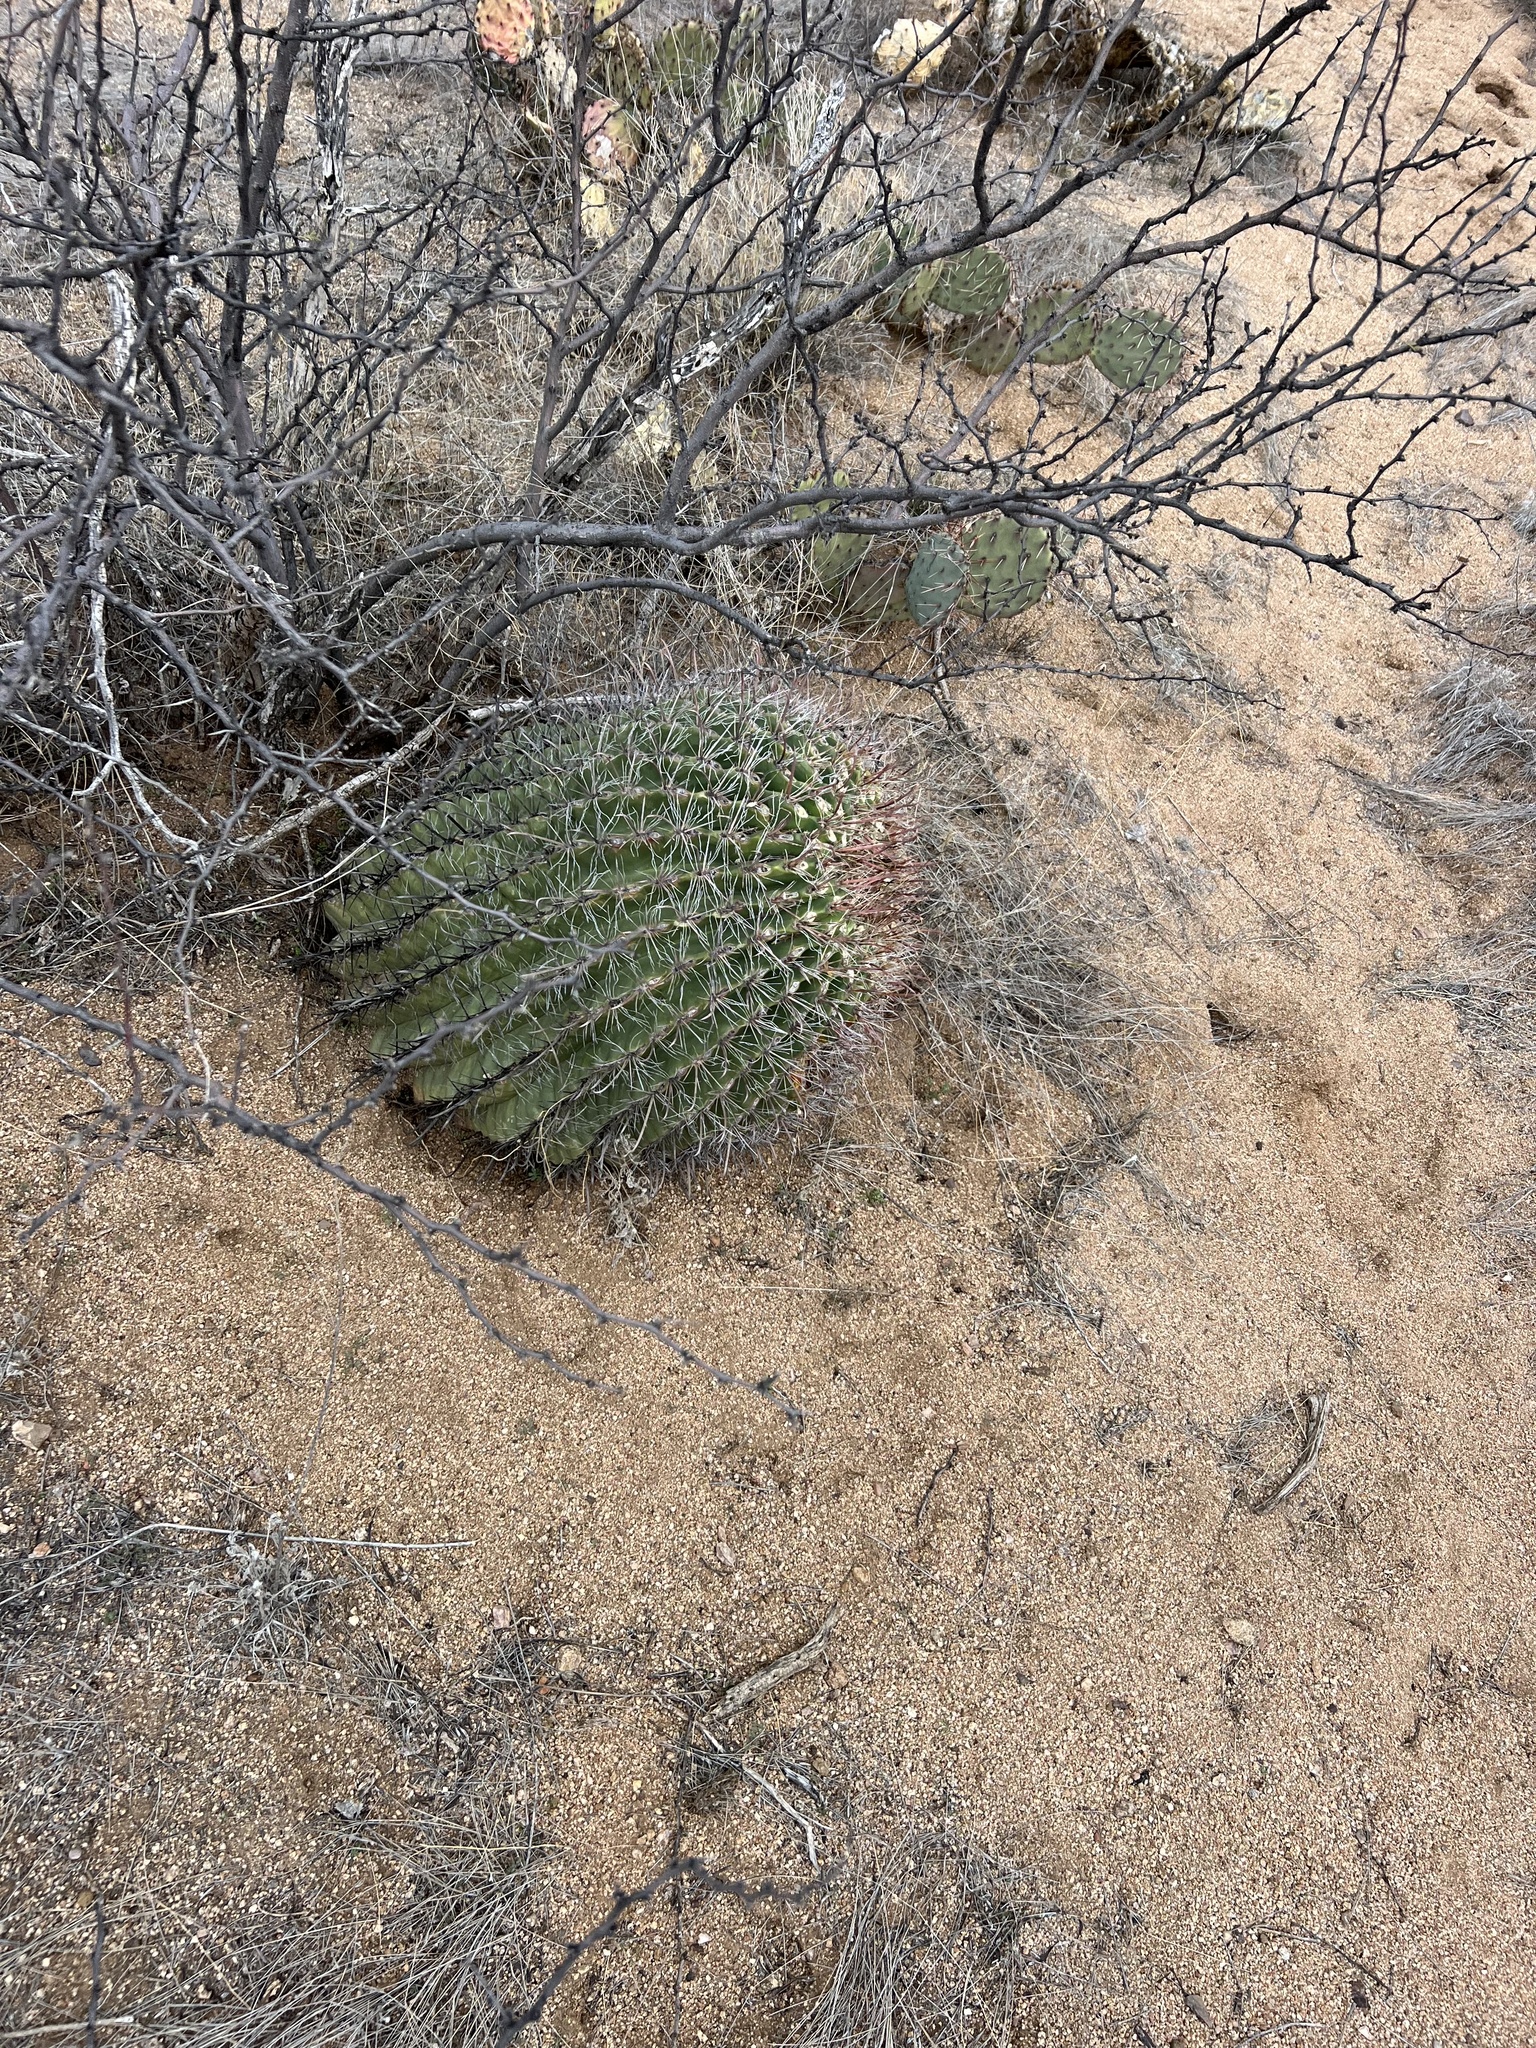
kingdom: Plantae
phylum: Tracheophyta
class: Magnoliopsida
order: Caryophyllales
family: Cactaceae
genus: Ferocactus
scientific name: Ferocactus wislizeni
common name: Candy barrel cactus
